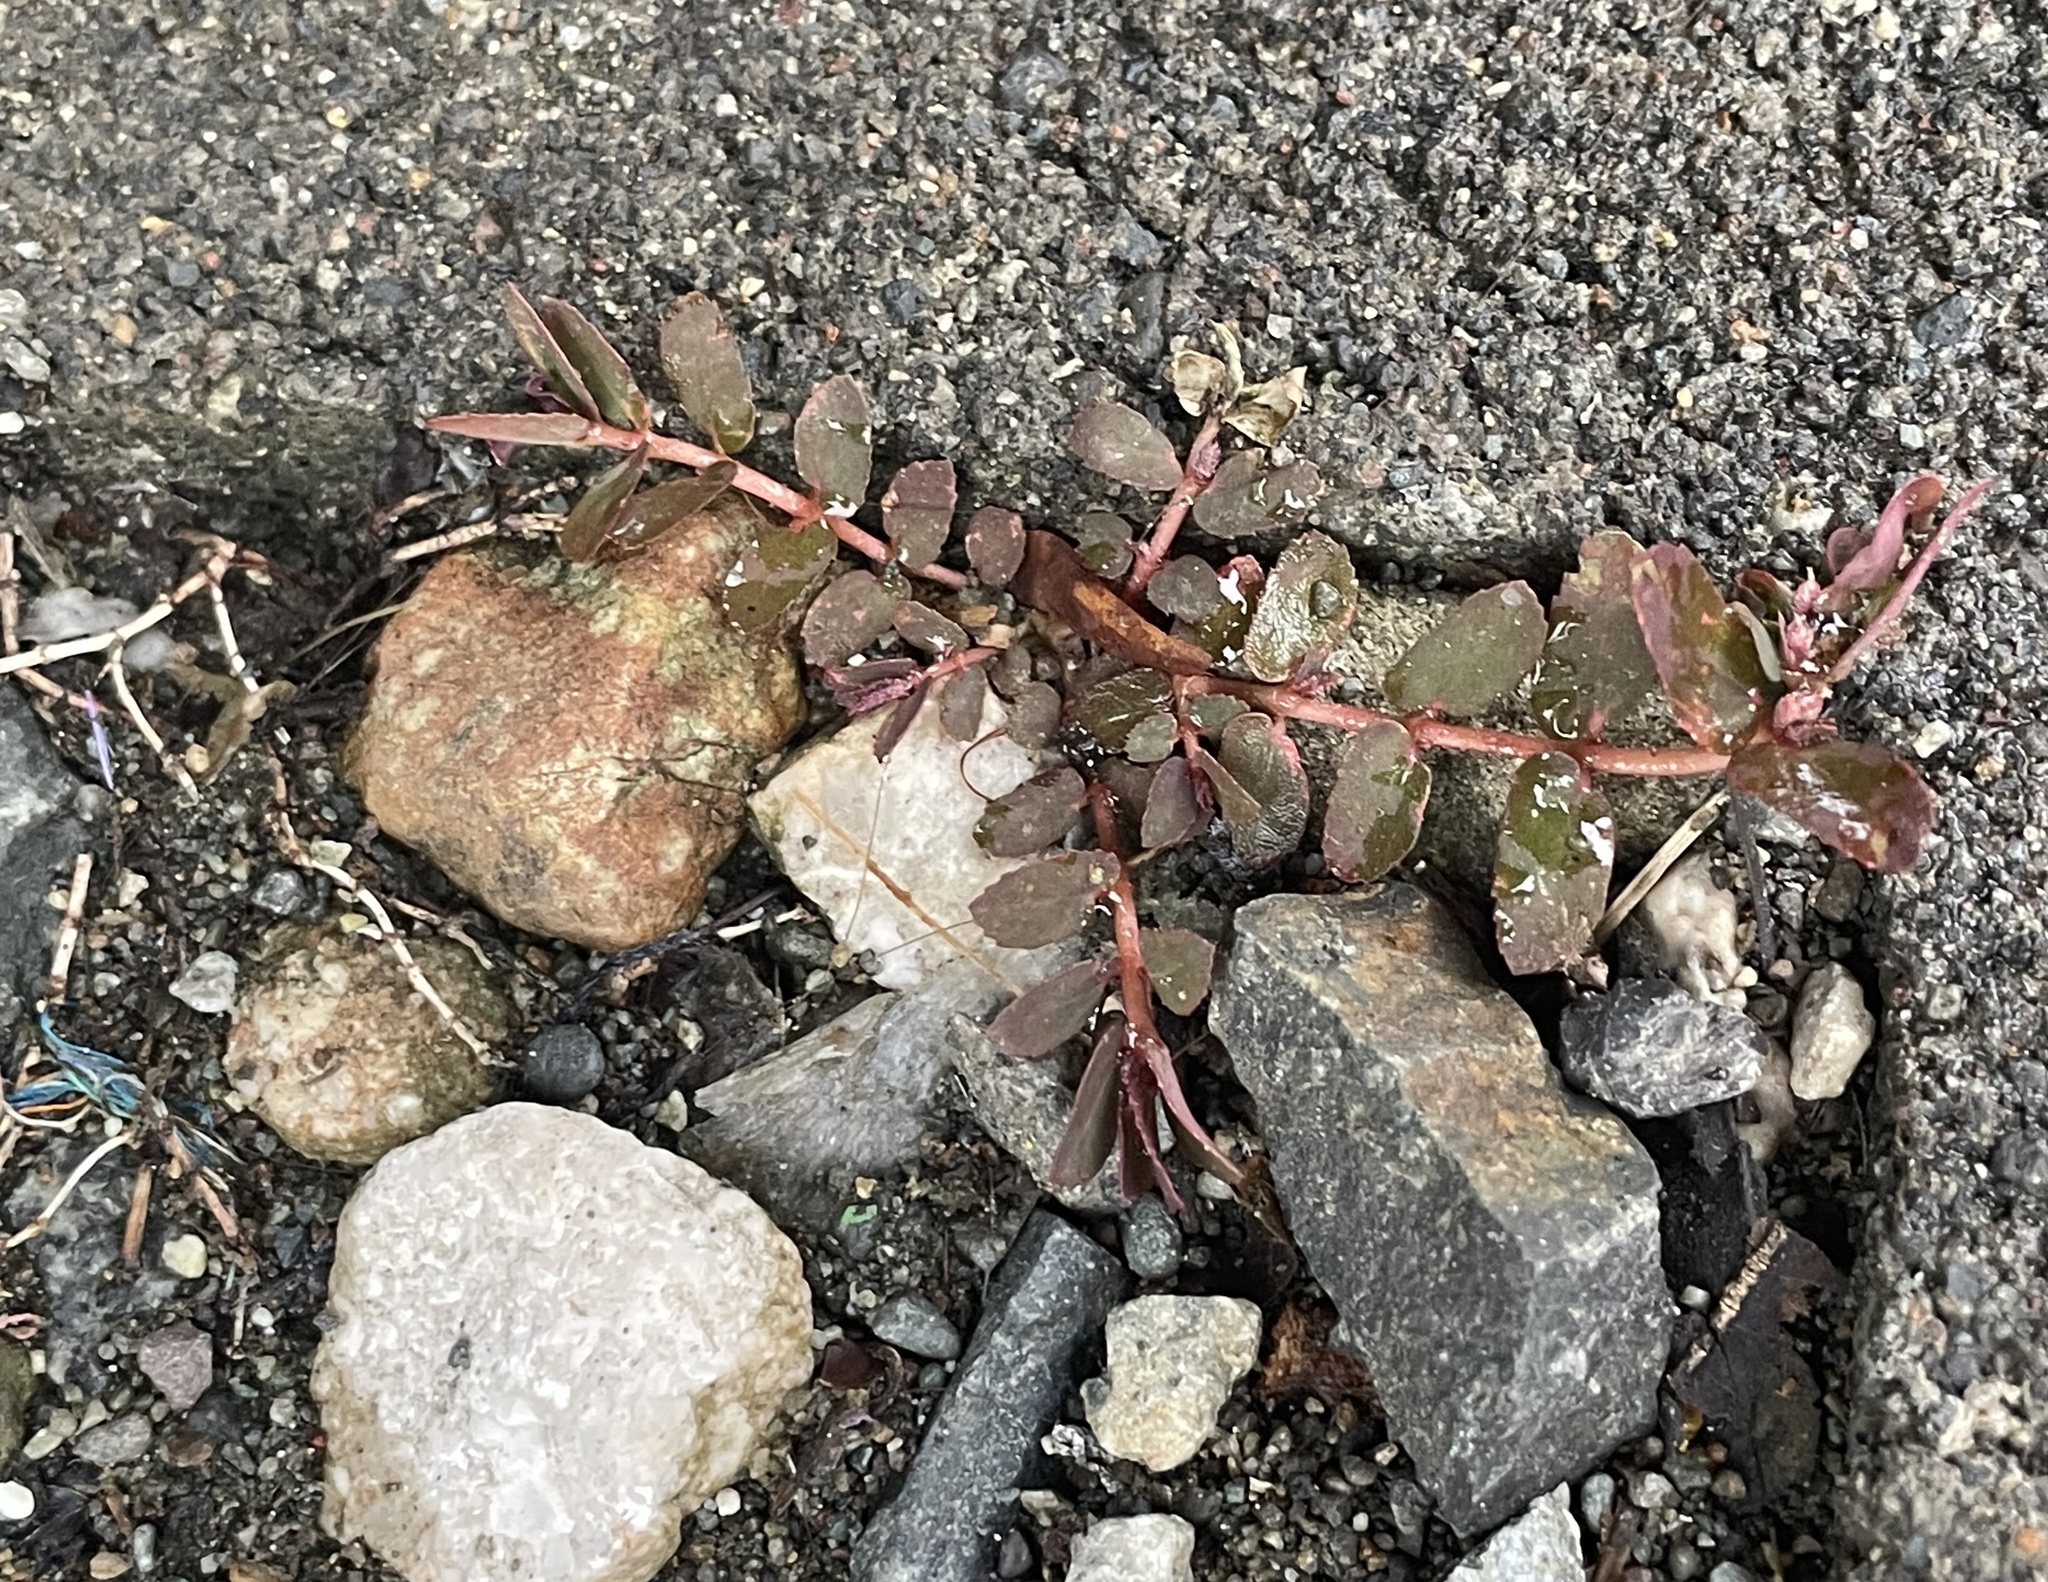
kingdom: Plantae
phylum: Tracheophyta
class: Magnoliopsida
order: Malpighiales
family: Euphorbiaceae
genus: Euphorbia
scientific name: Euphorbia thymifolia
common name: Gulf sandmat
